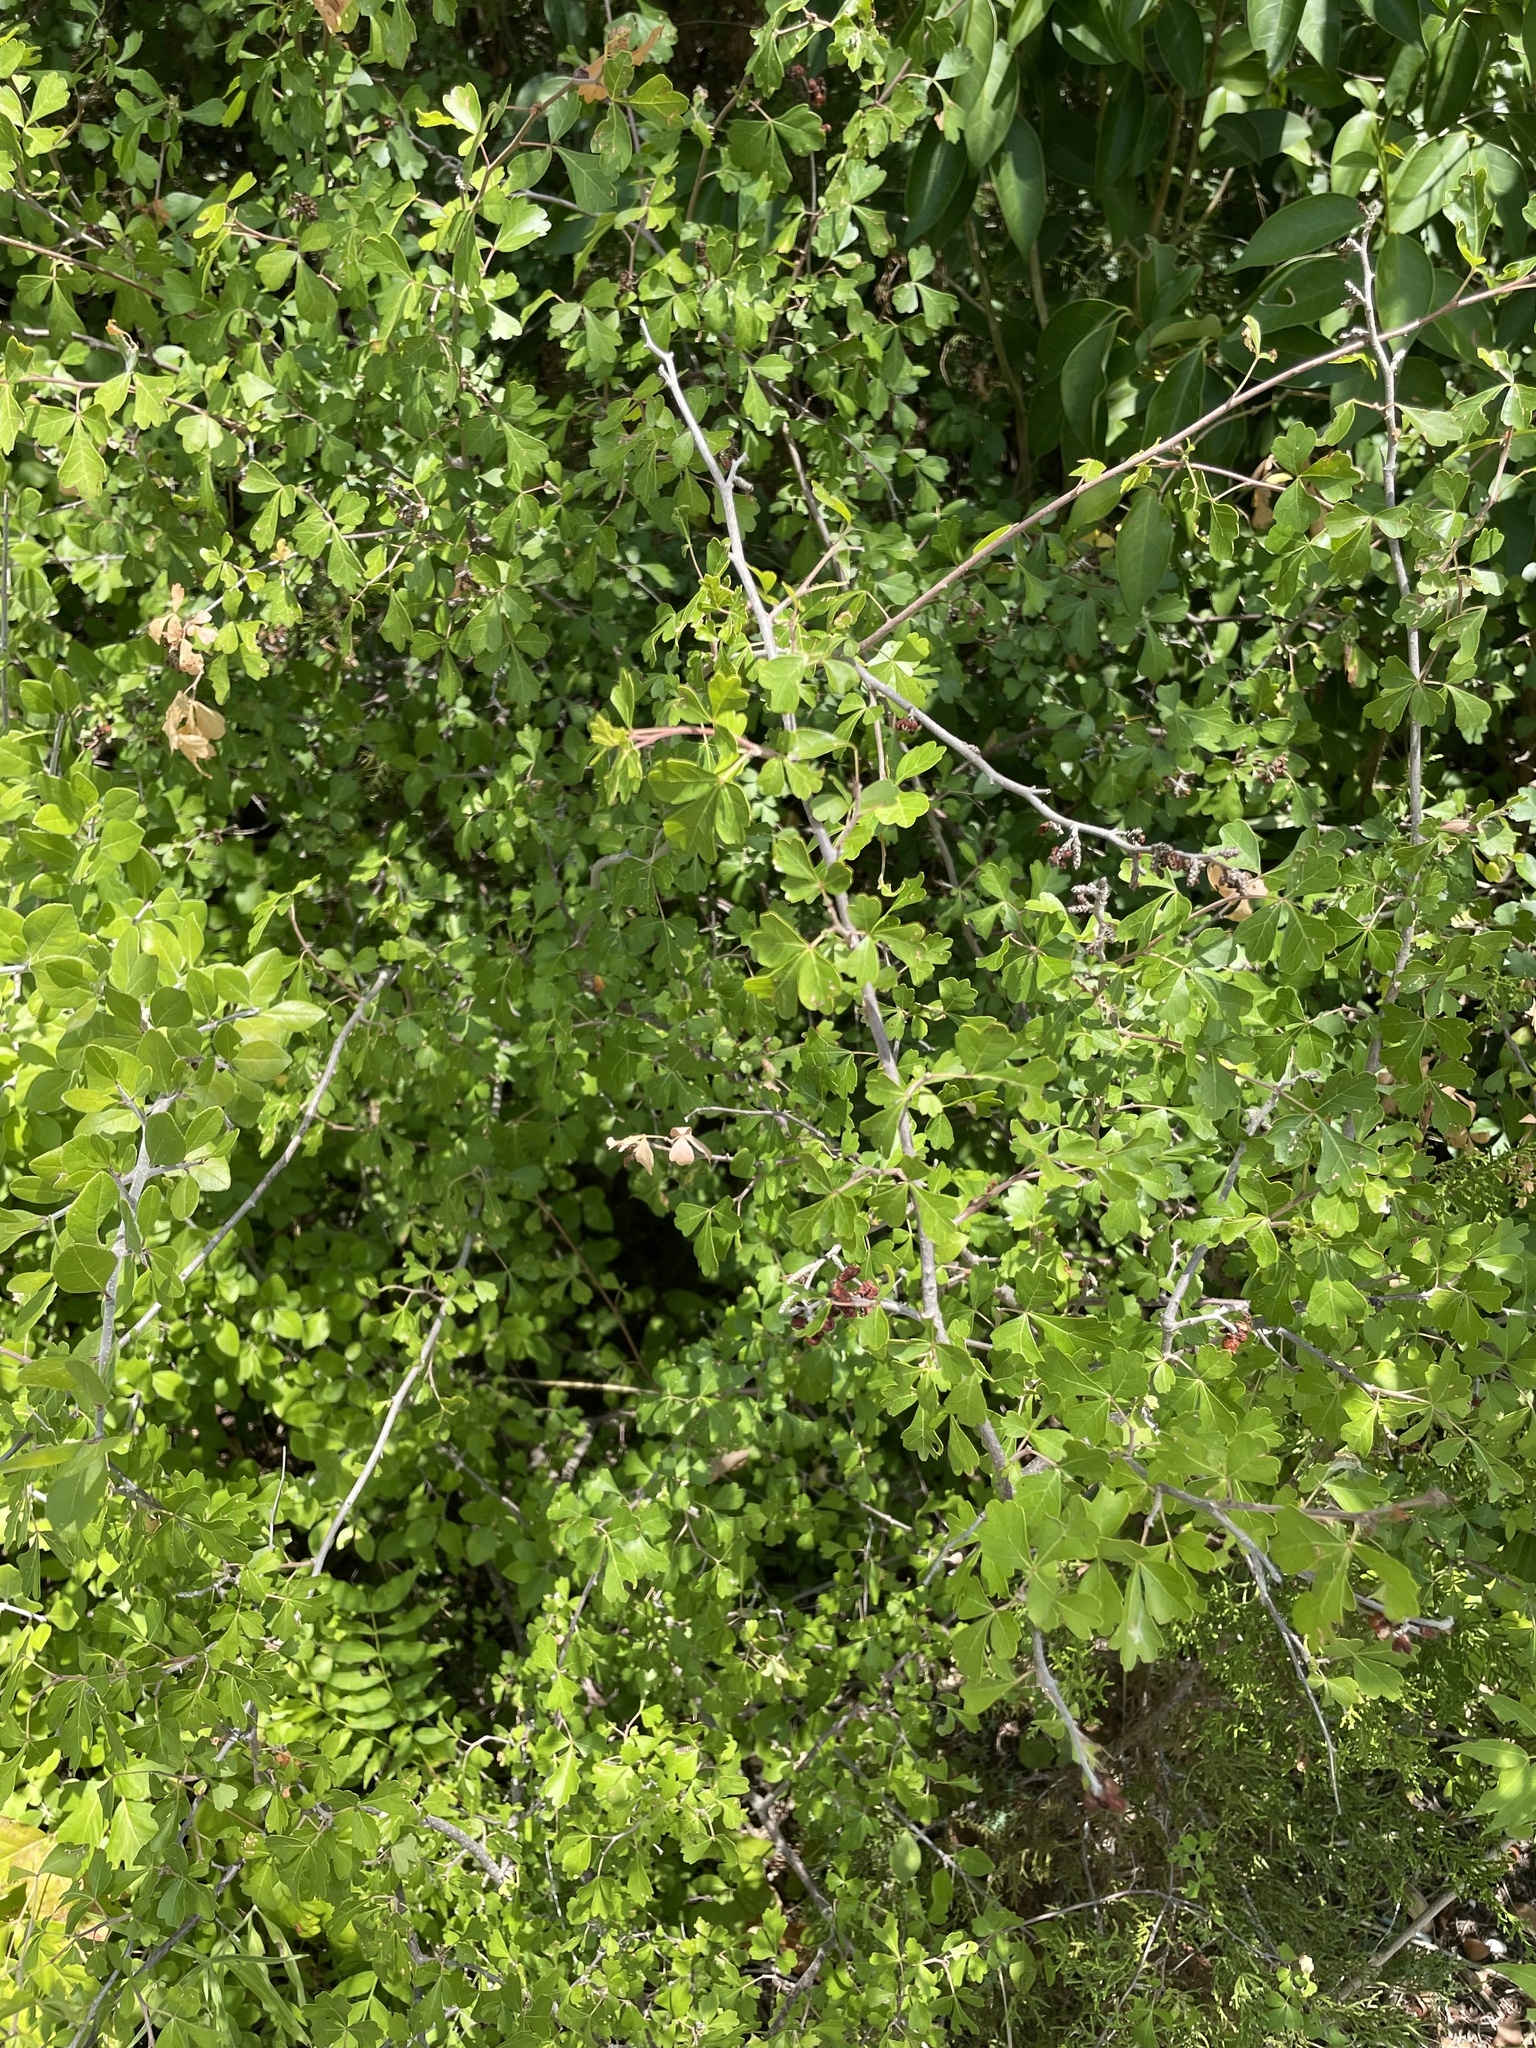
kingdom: Plantae
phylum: Tracheophyta
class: Magnoliopsida
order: Sapindales
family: Anacardiaceae
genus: Rhus
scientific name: Rhus aromatica
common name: Aromatic sumac
